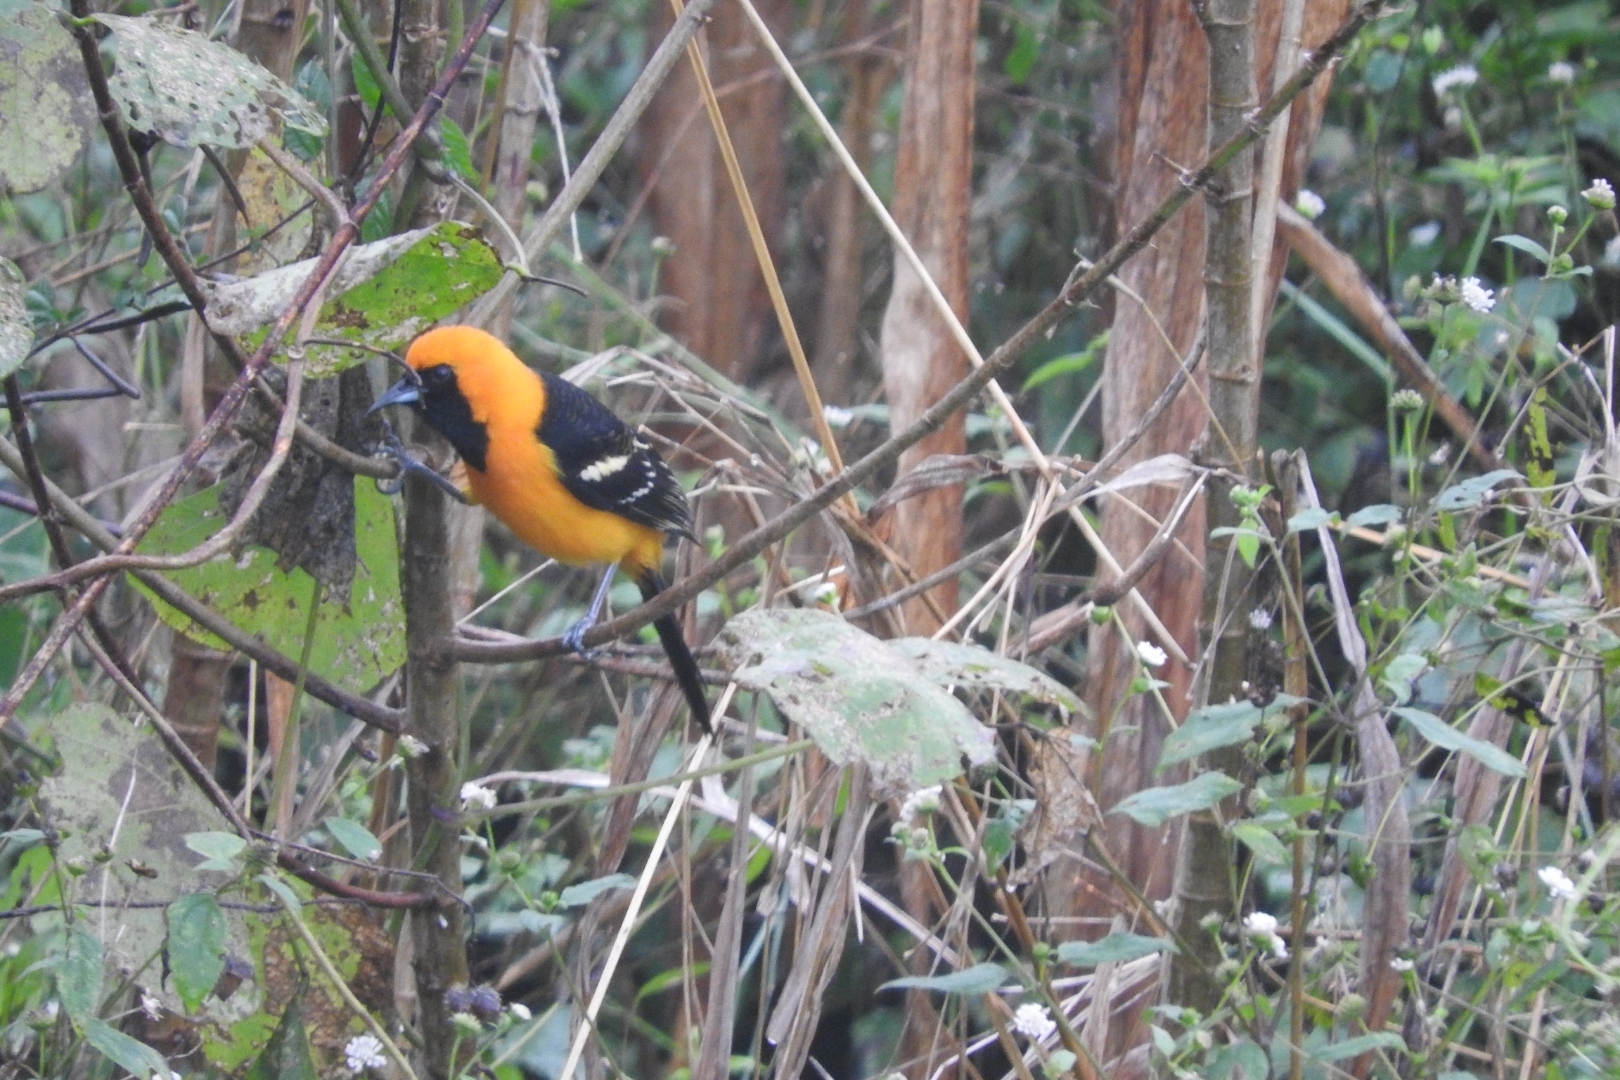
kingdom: Animalia
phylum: Chordata
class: Aves
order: Passeriformes
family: Icteridae
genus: Icterus
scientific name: Icterus cucullatus
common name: Hooded oriole
